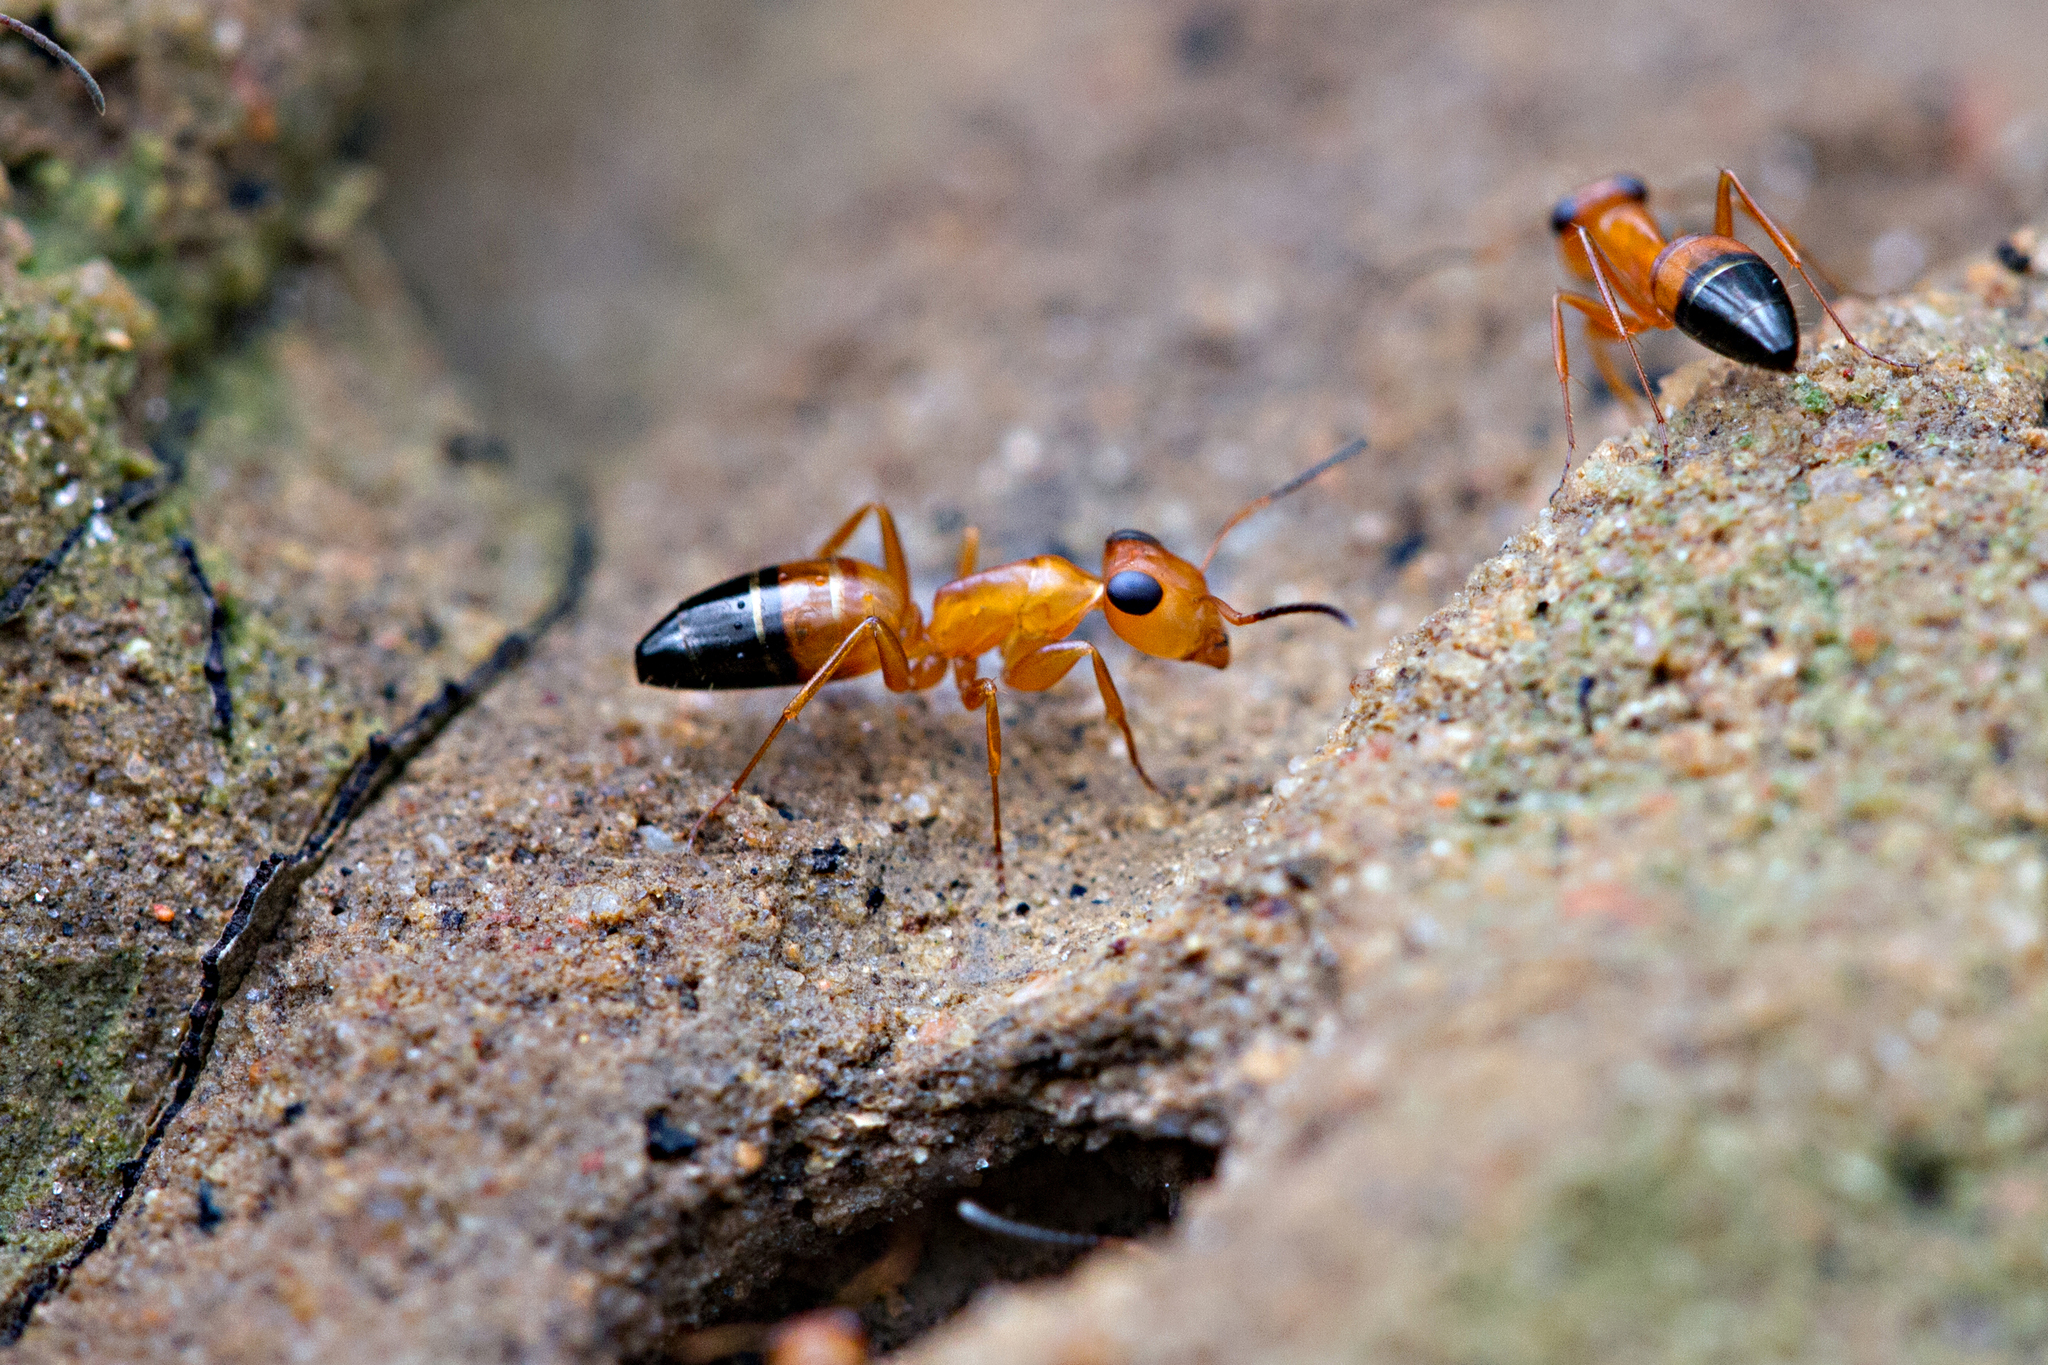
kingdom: Animalia
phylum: Arthropoda
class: Insecta
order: Hymenoptera
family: Formicidae
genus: Opisthopsis
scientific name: Opisthopsis haddoni
